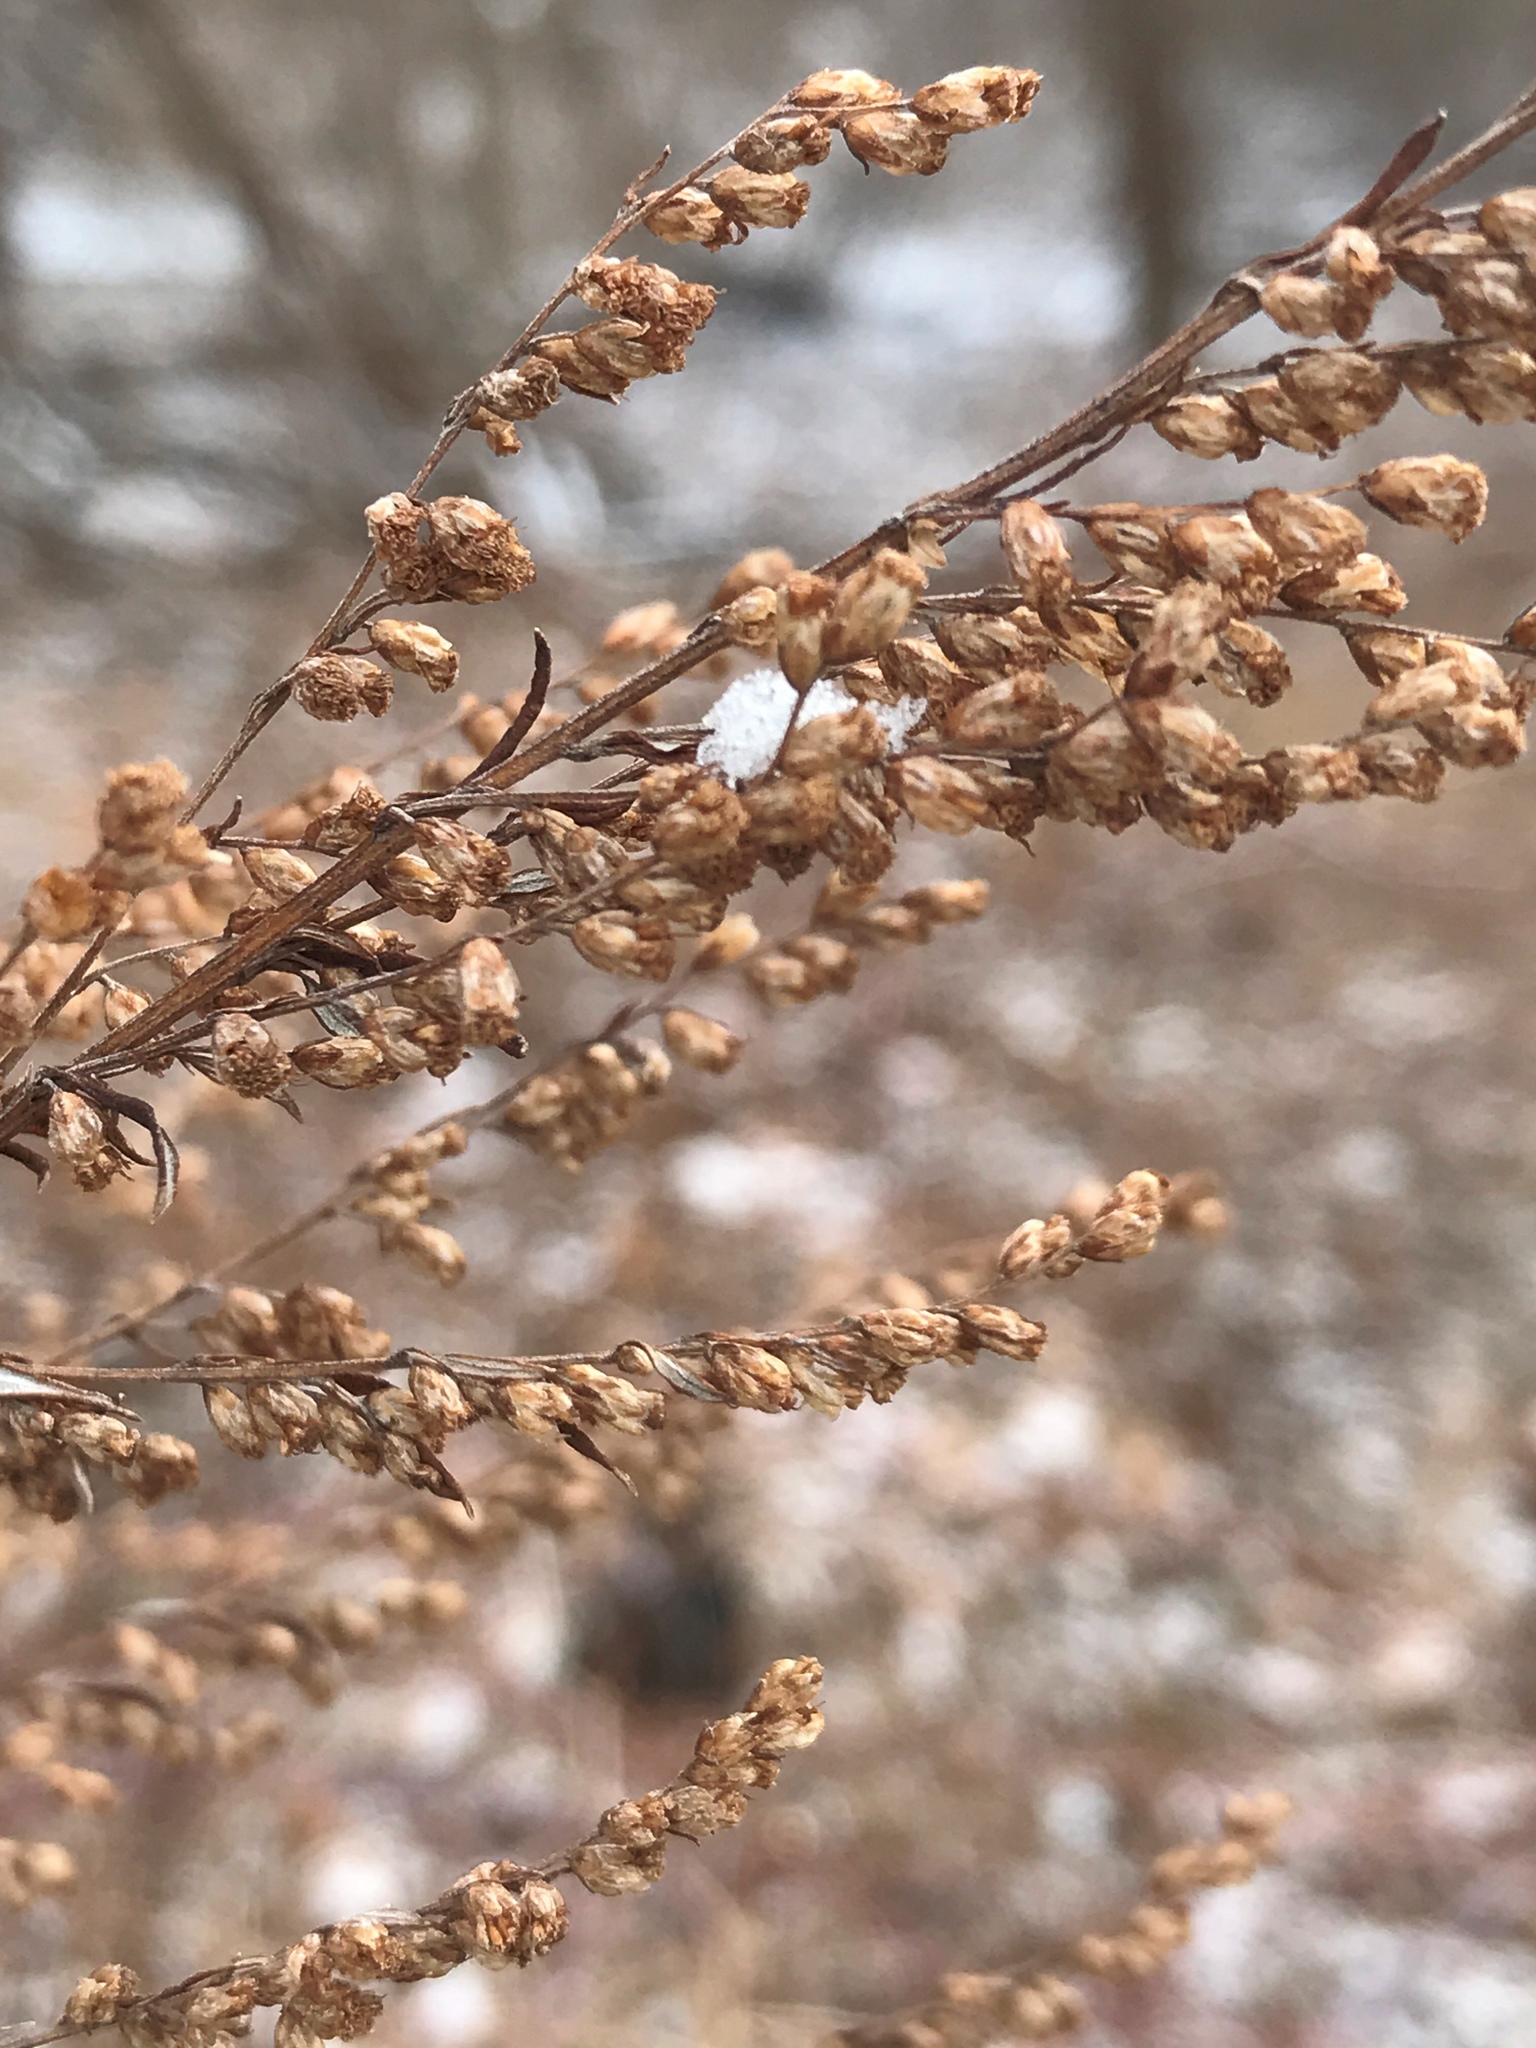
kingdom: Plantae
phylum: Tracheophyta
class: Magnoliopsida
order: Asterales
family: Asteraceae
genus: Artemisia
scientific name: Artemisia vulgaris
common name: Mugwort
